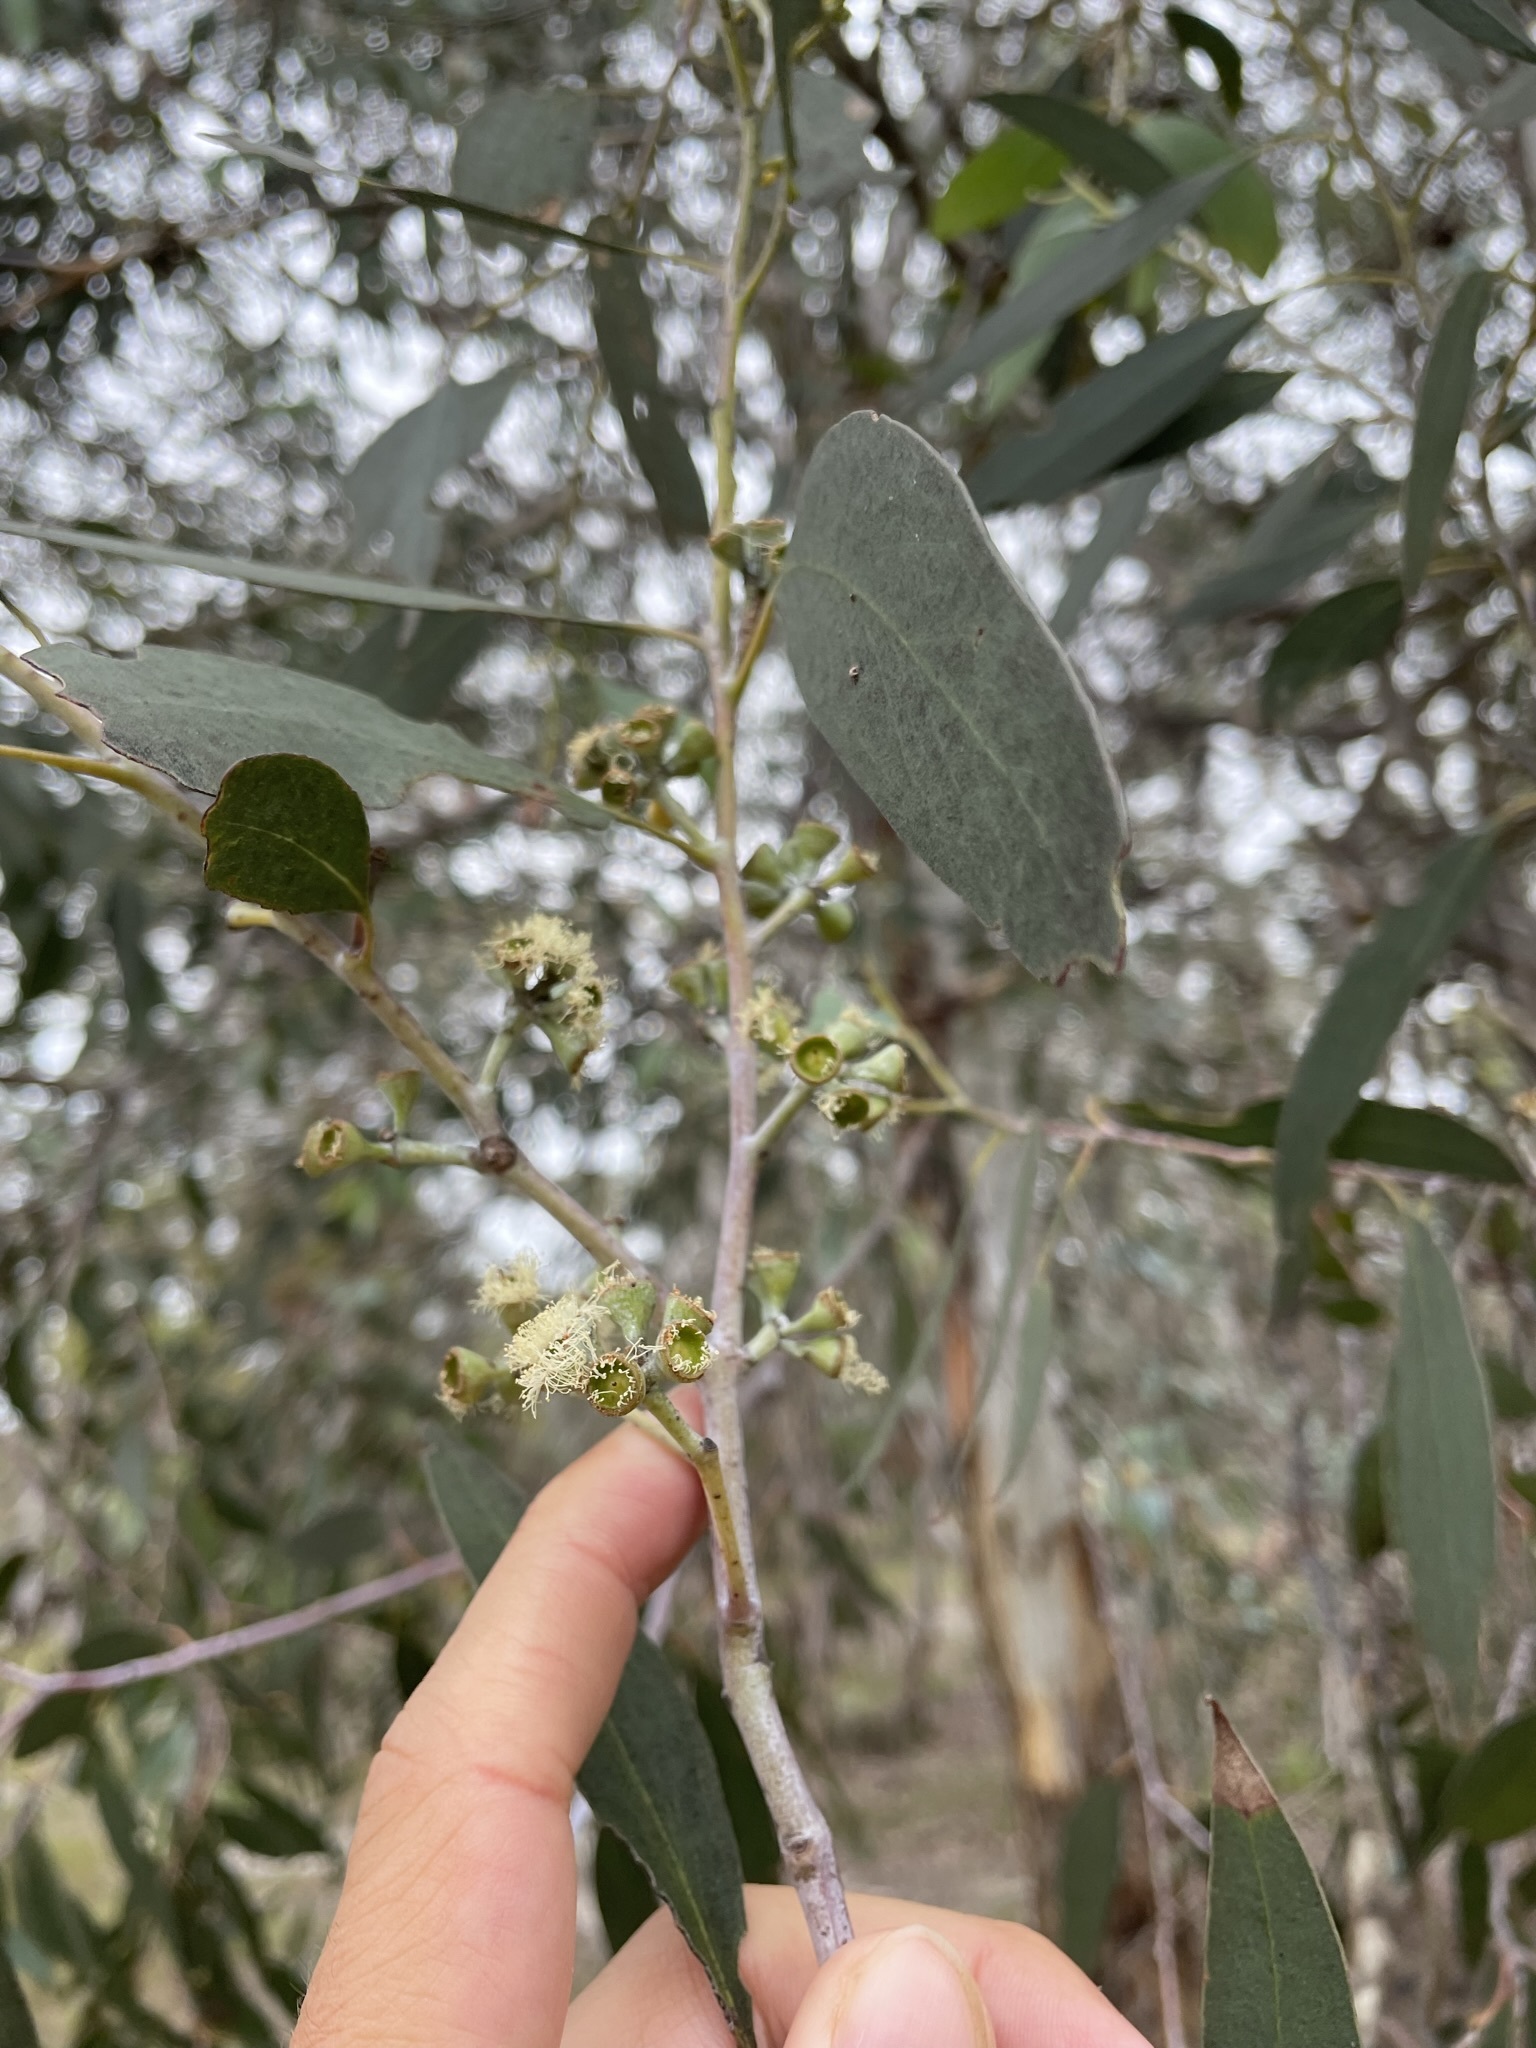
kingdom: Plantae
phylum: Tracheophyta
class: Magnoliopsida
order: Myrtales
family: Myrtaceae
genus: Eucalyptus
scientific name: Eucalyptus tenuiramis
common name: Silver peppermint
